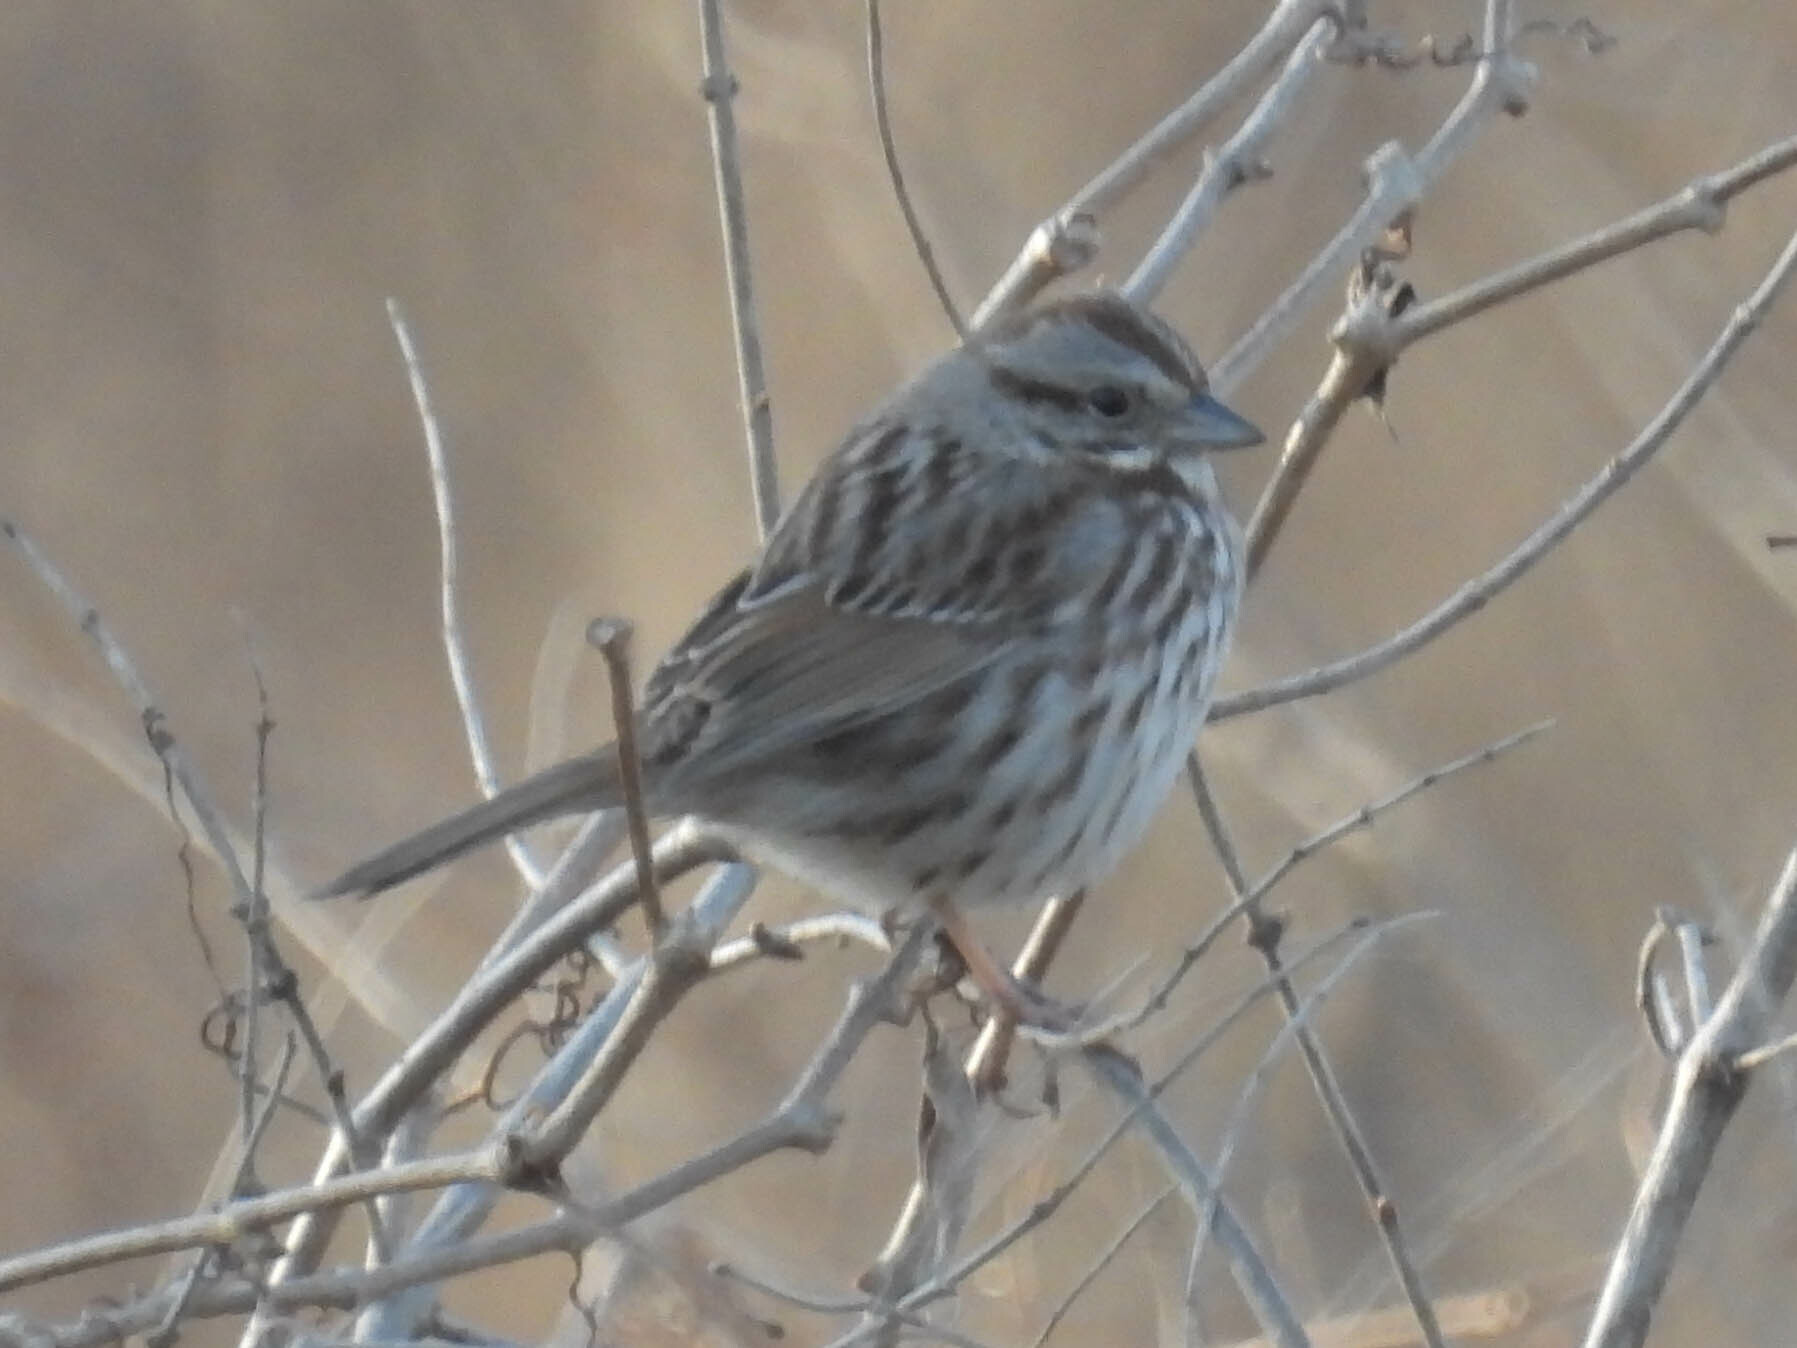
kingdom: Animalia
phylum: Chordata
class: Aves
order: Passeriformes
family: Passerellidae
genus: Melospiza
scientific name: Melospiza melodia
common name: Song sparrow
